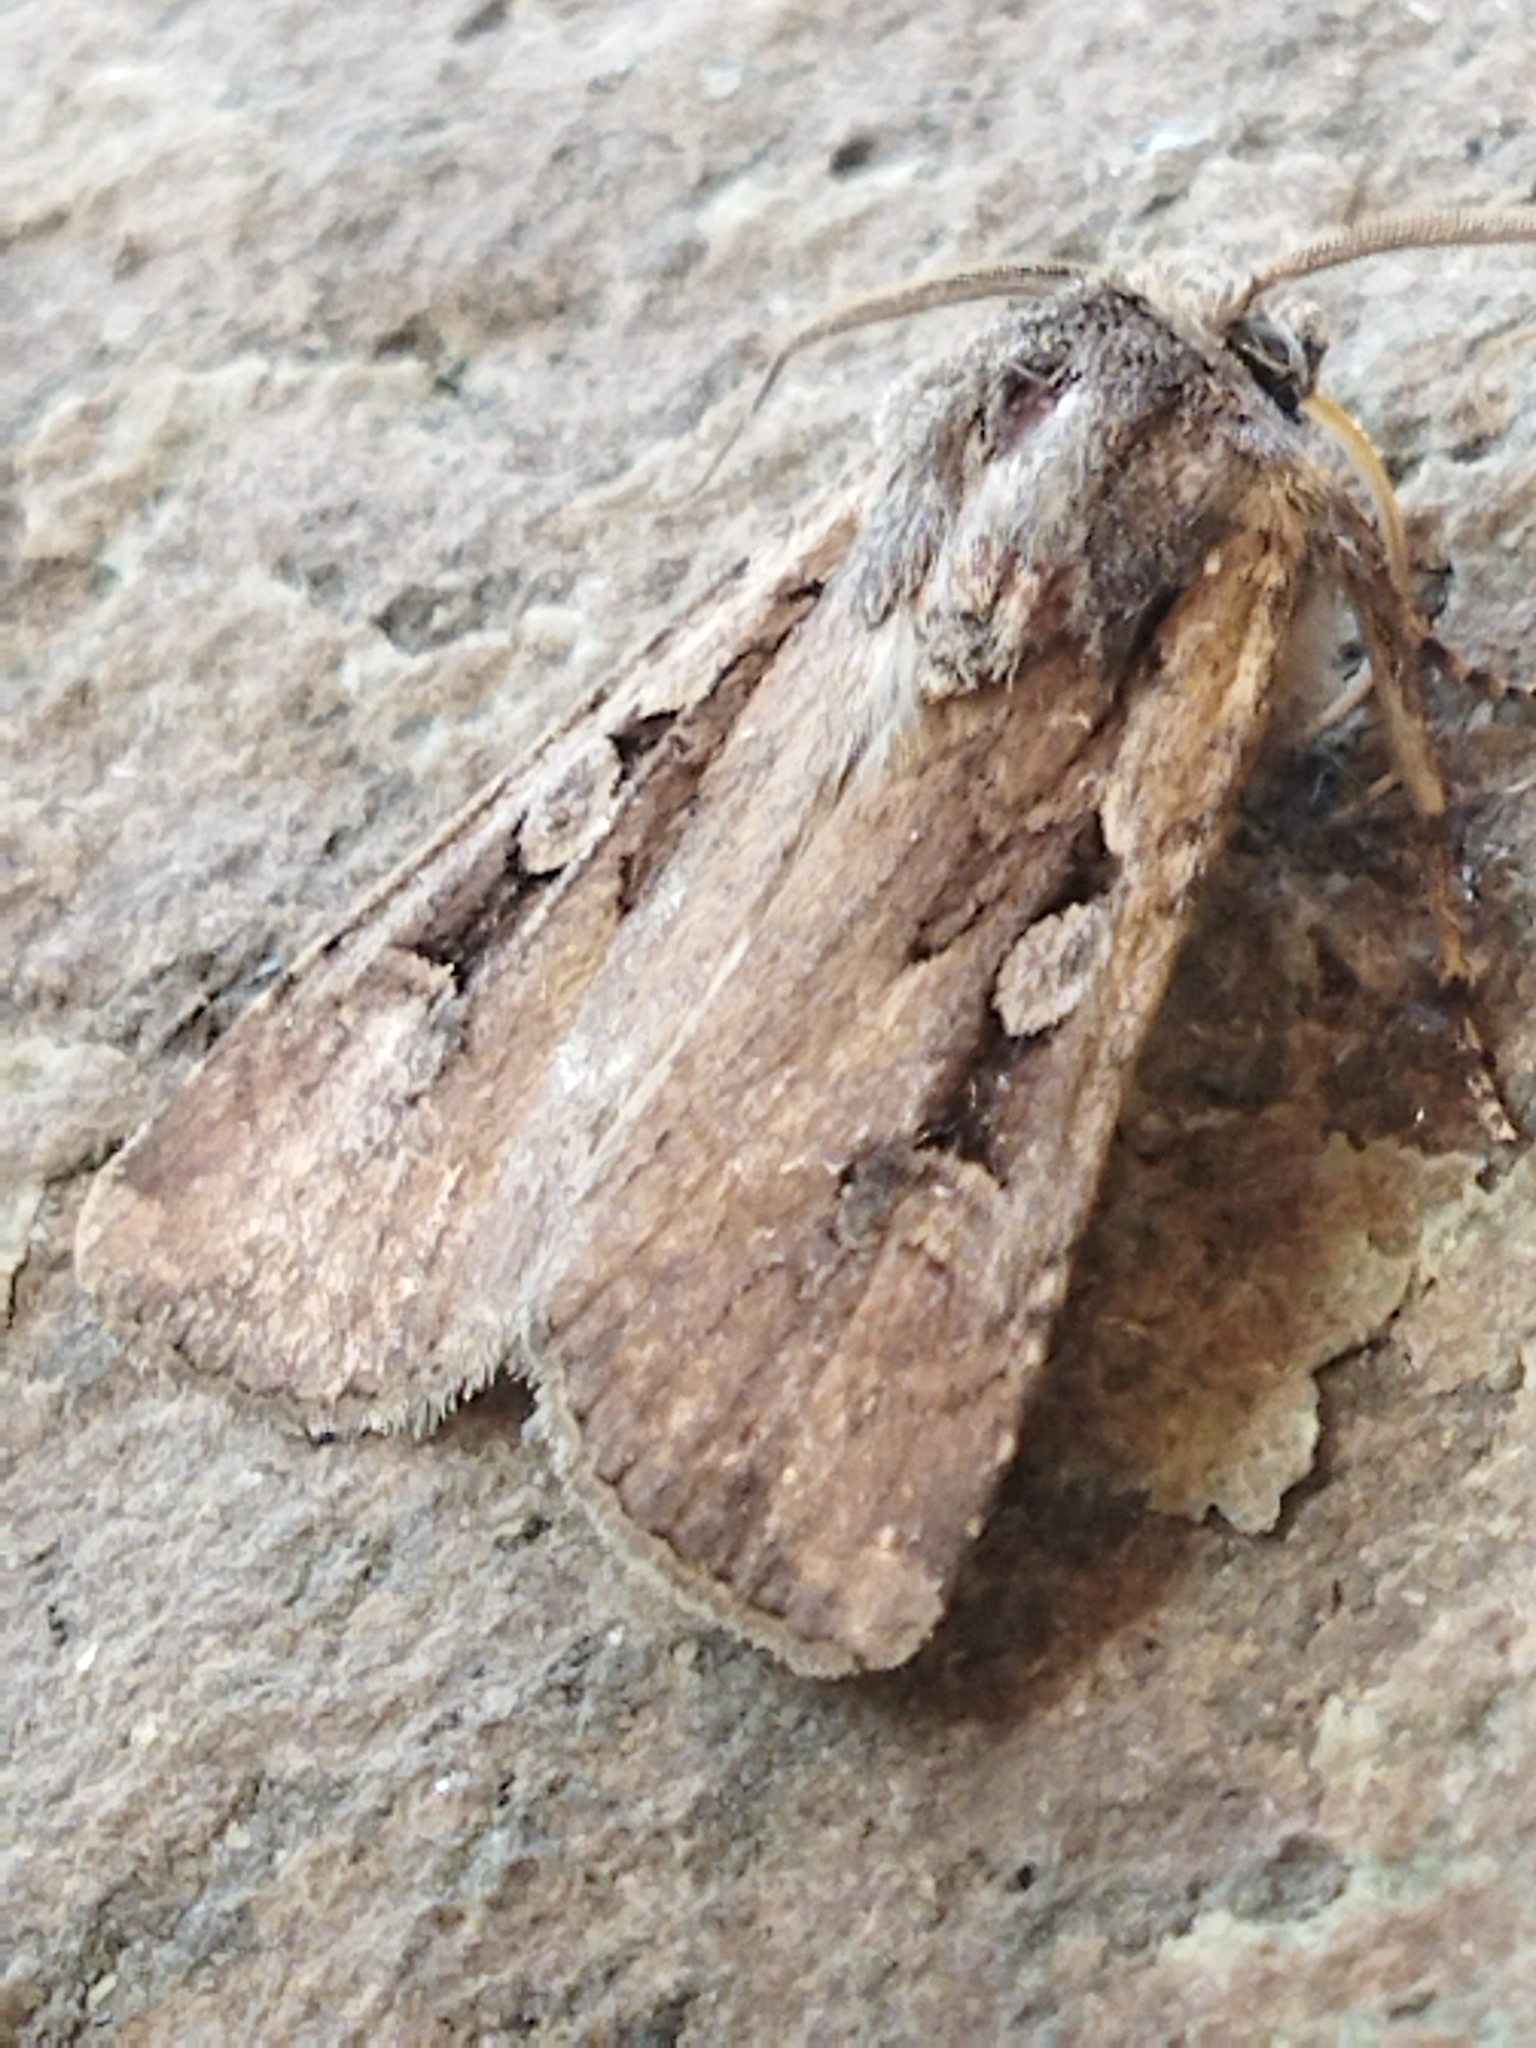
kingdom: Animalia
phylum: Arthropoda
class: Insecta
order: Lepidoptera
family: Noctuidae
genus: Euxoa
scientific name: Euxoa temera
